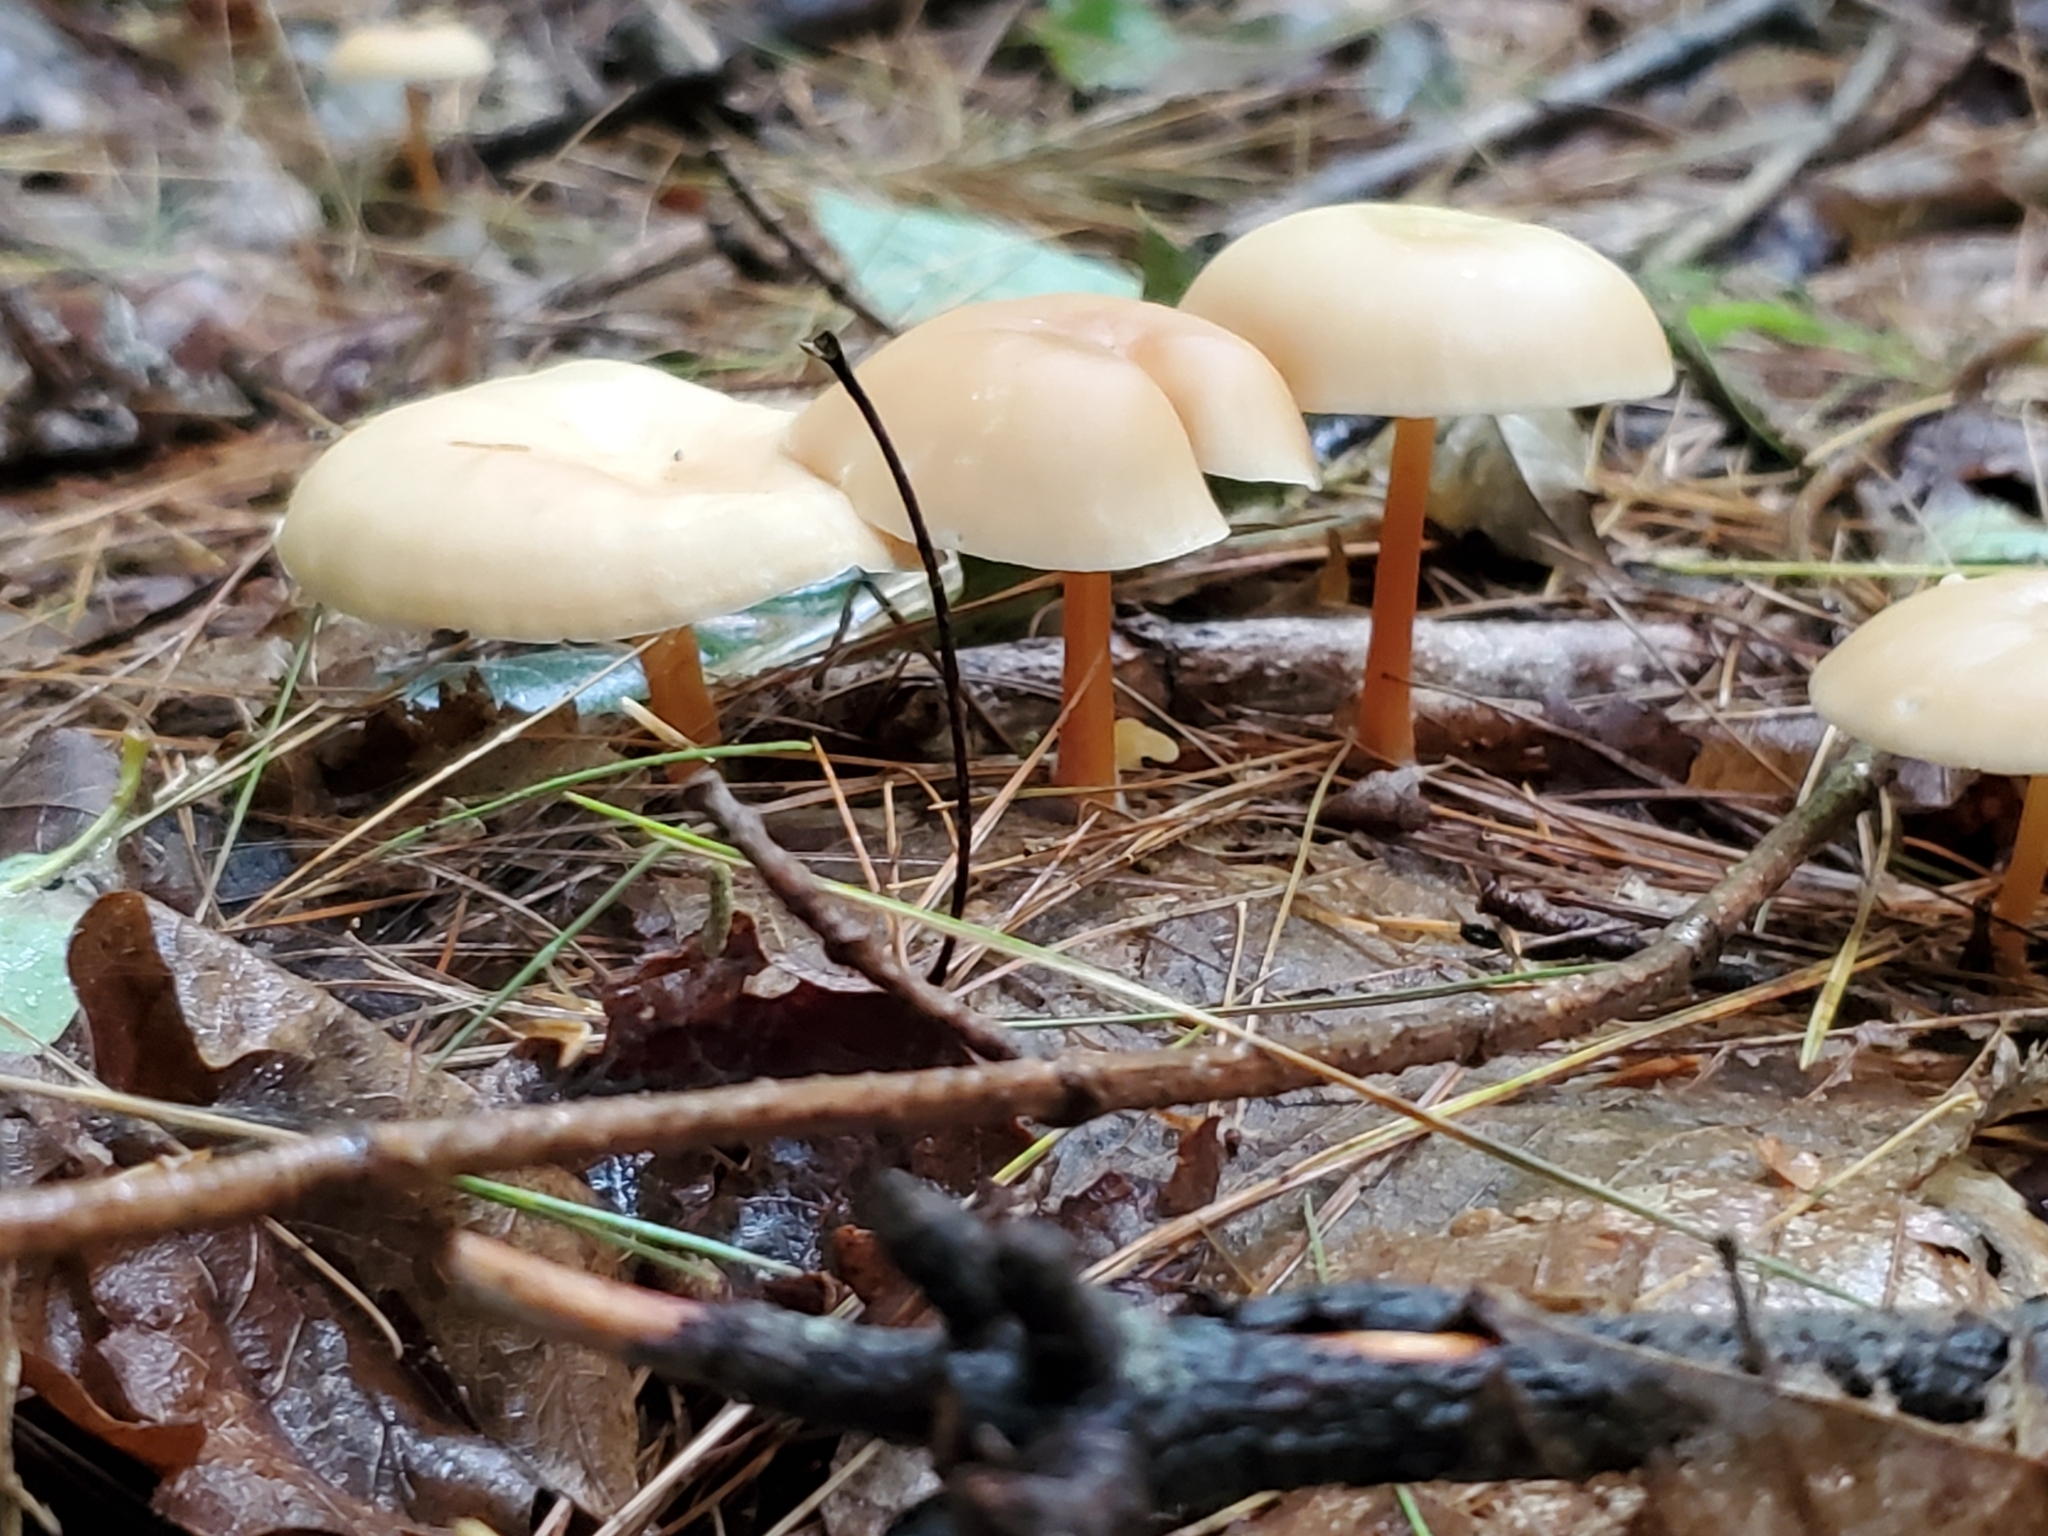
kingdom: Fungi
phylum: Basidiomycota
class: Agaricomycetes
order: Agaricales
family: Omphalotaceae
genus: Gymnopus
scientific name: Gymnopus dryophilus
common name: Penny top
